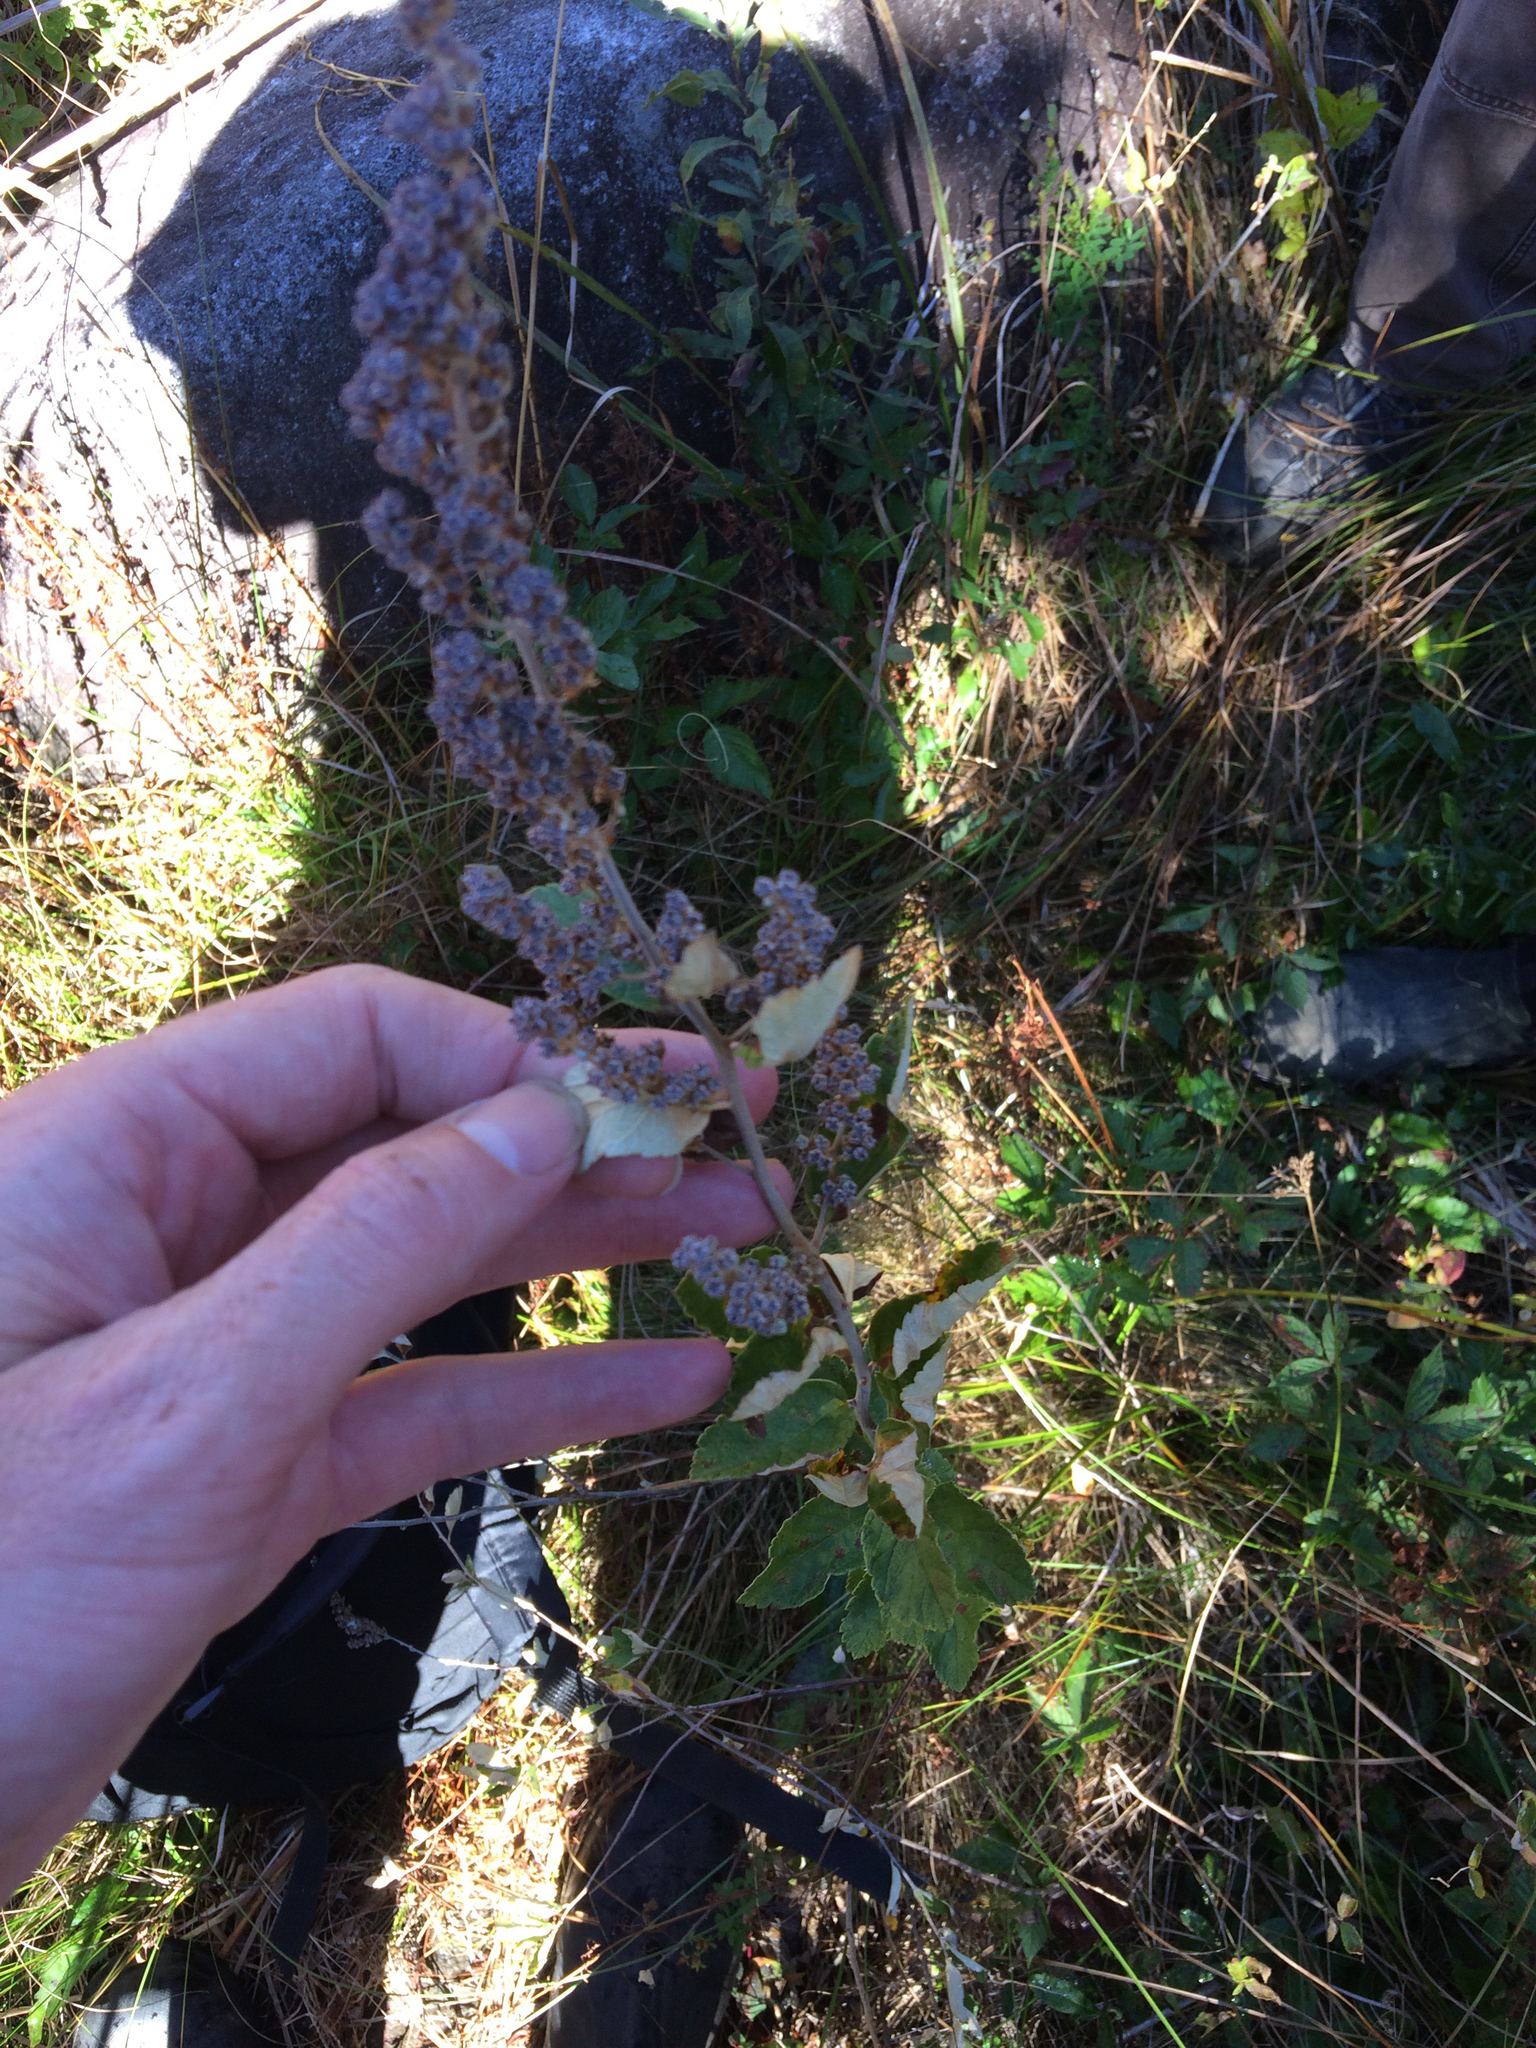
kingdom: Plantae
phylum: Tracheophyta
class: Magnoliopsida
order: Rosales
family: Rosaceae
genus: Spiraea
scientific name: Spiraea tomentosa
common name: Hardhack
